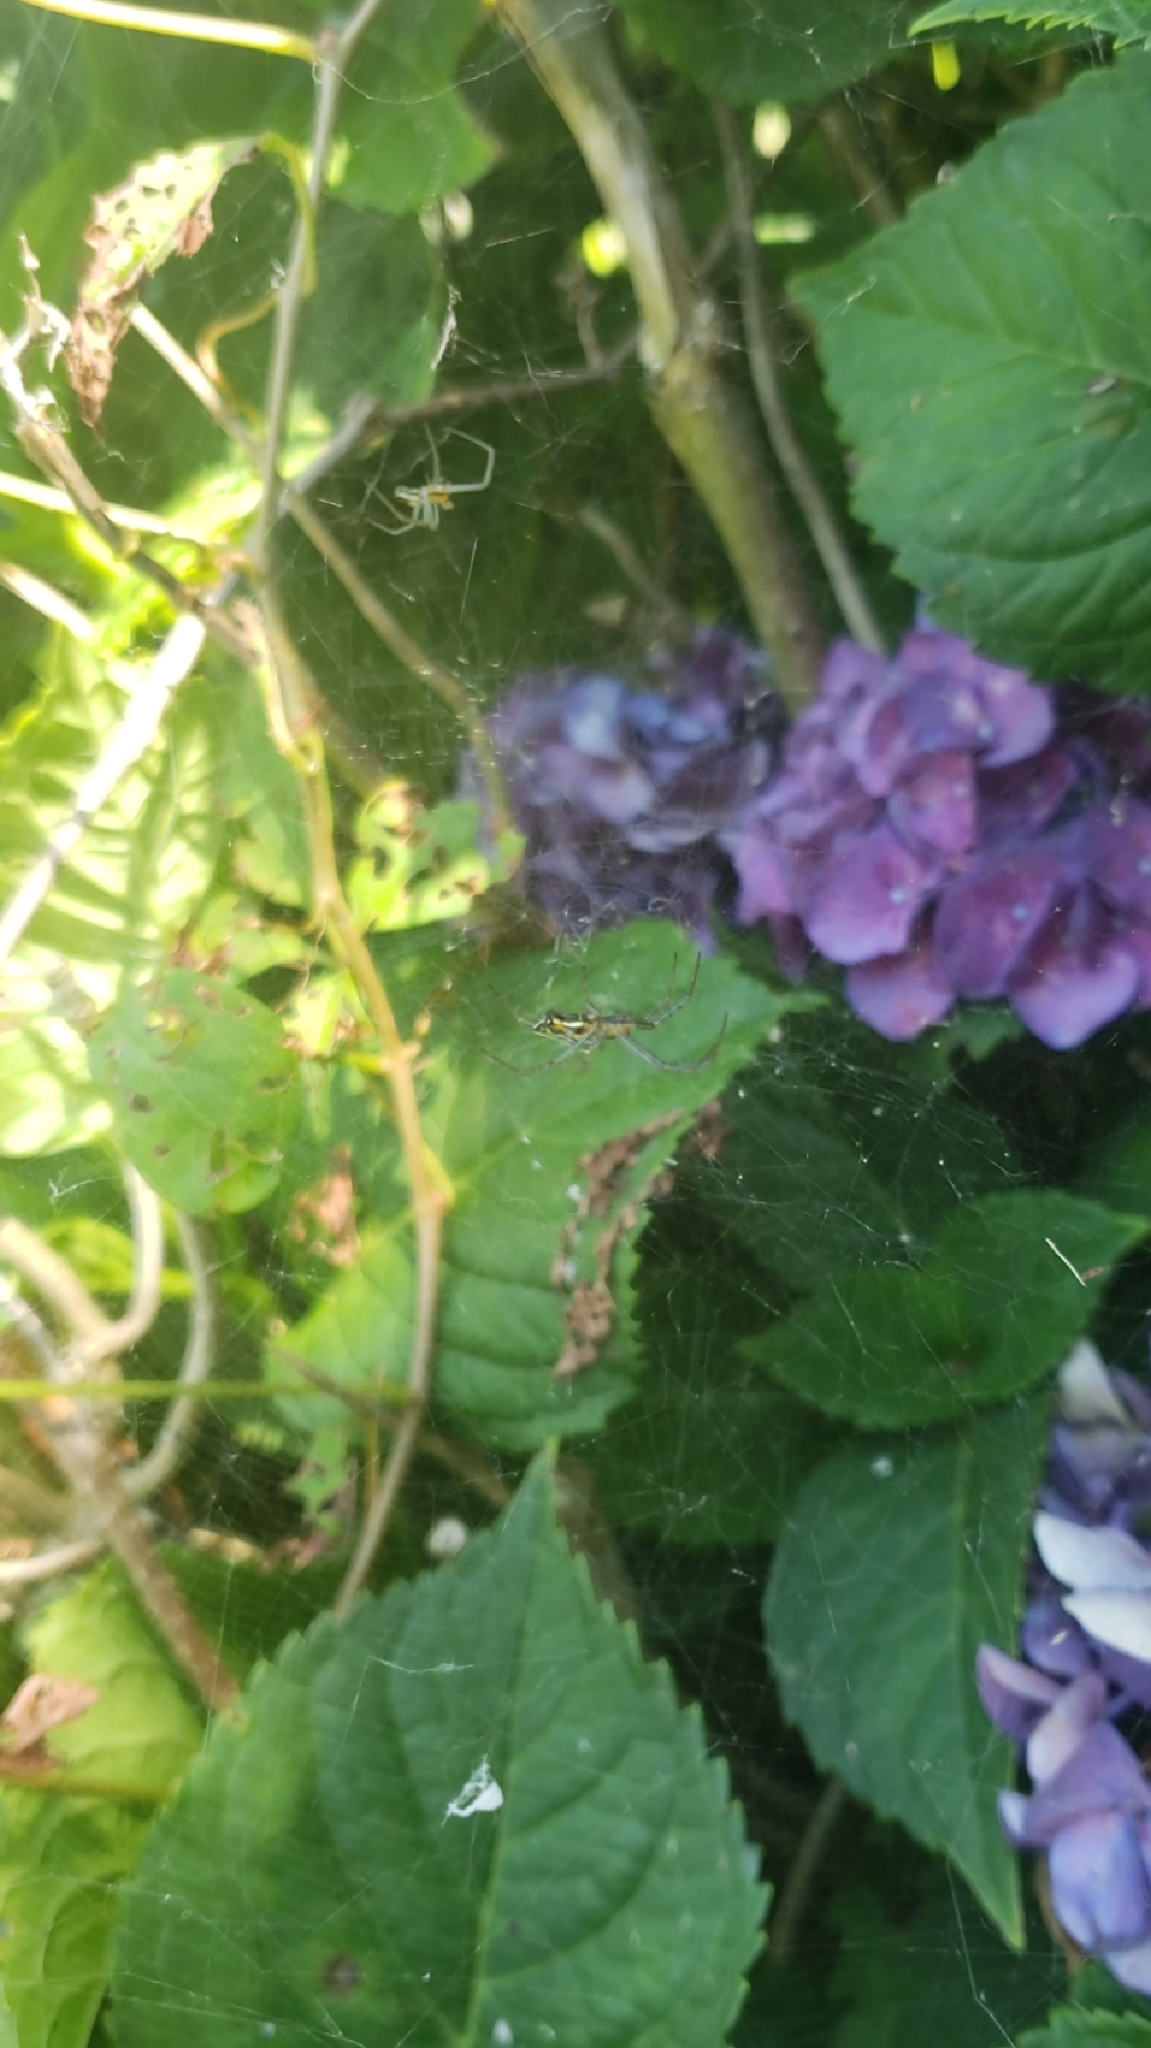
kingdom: Animalia
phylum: Arthropoda
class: Arachnida
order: Araneae
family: Araneidae
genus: Mecynogea
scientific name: Mecynogea lemniscata
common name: Orb weavers
